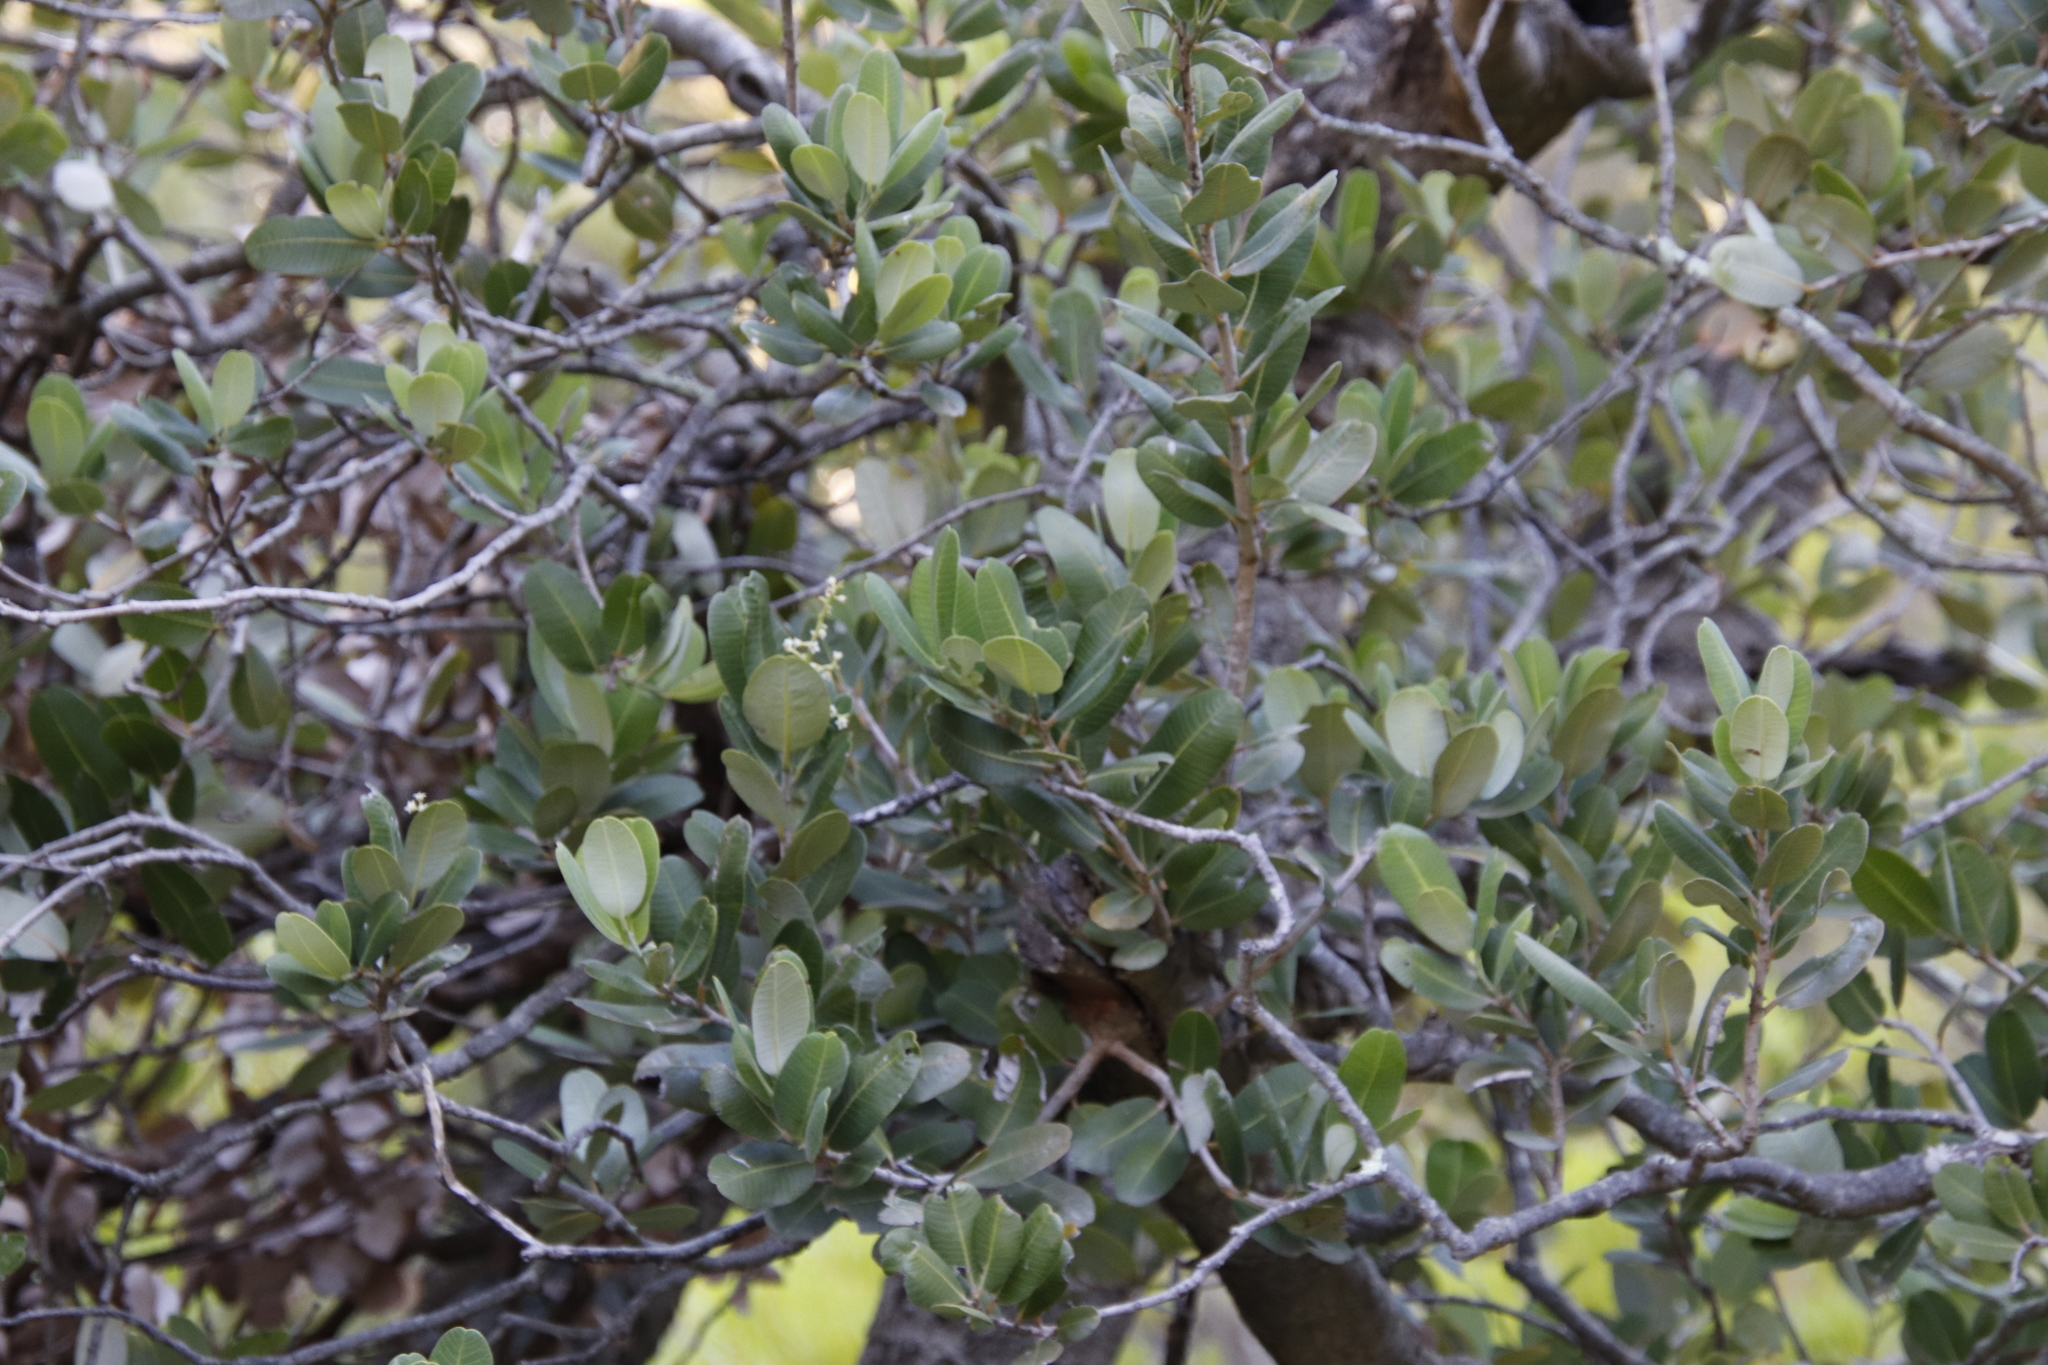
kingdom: Plantae
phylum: Tracheophyta
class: Magnoliopsida
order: Sapindales
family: Anacardiaceae
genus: Heeria
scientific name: Heeria argentea
